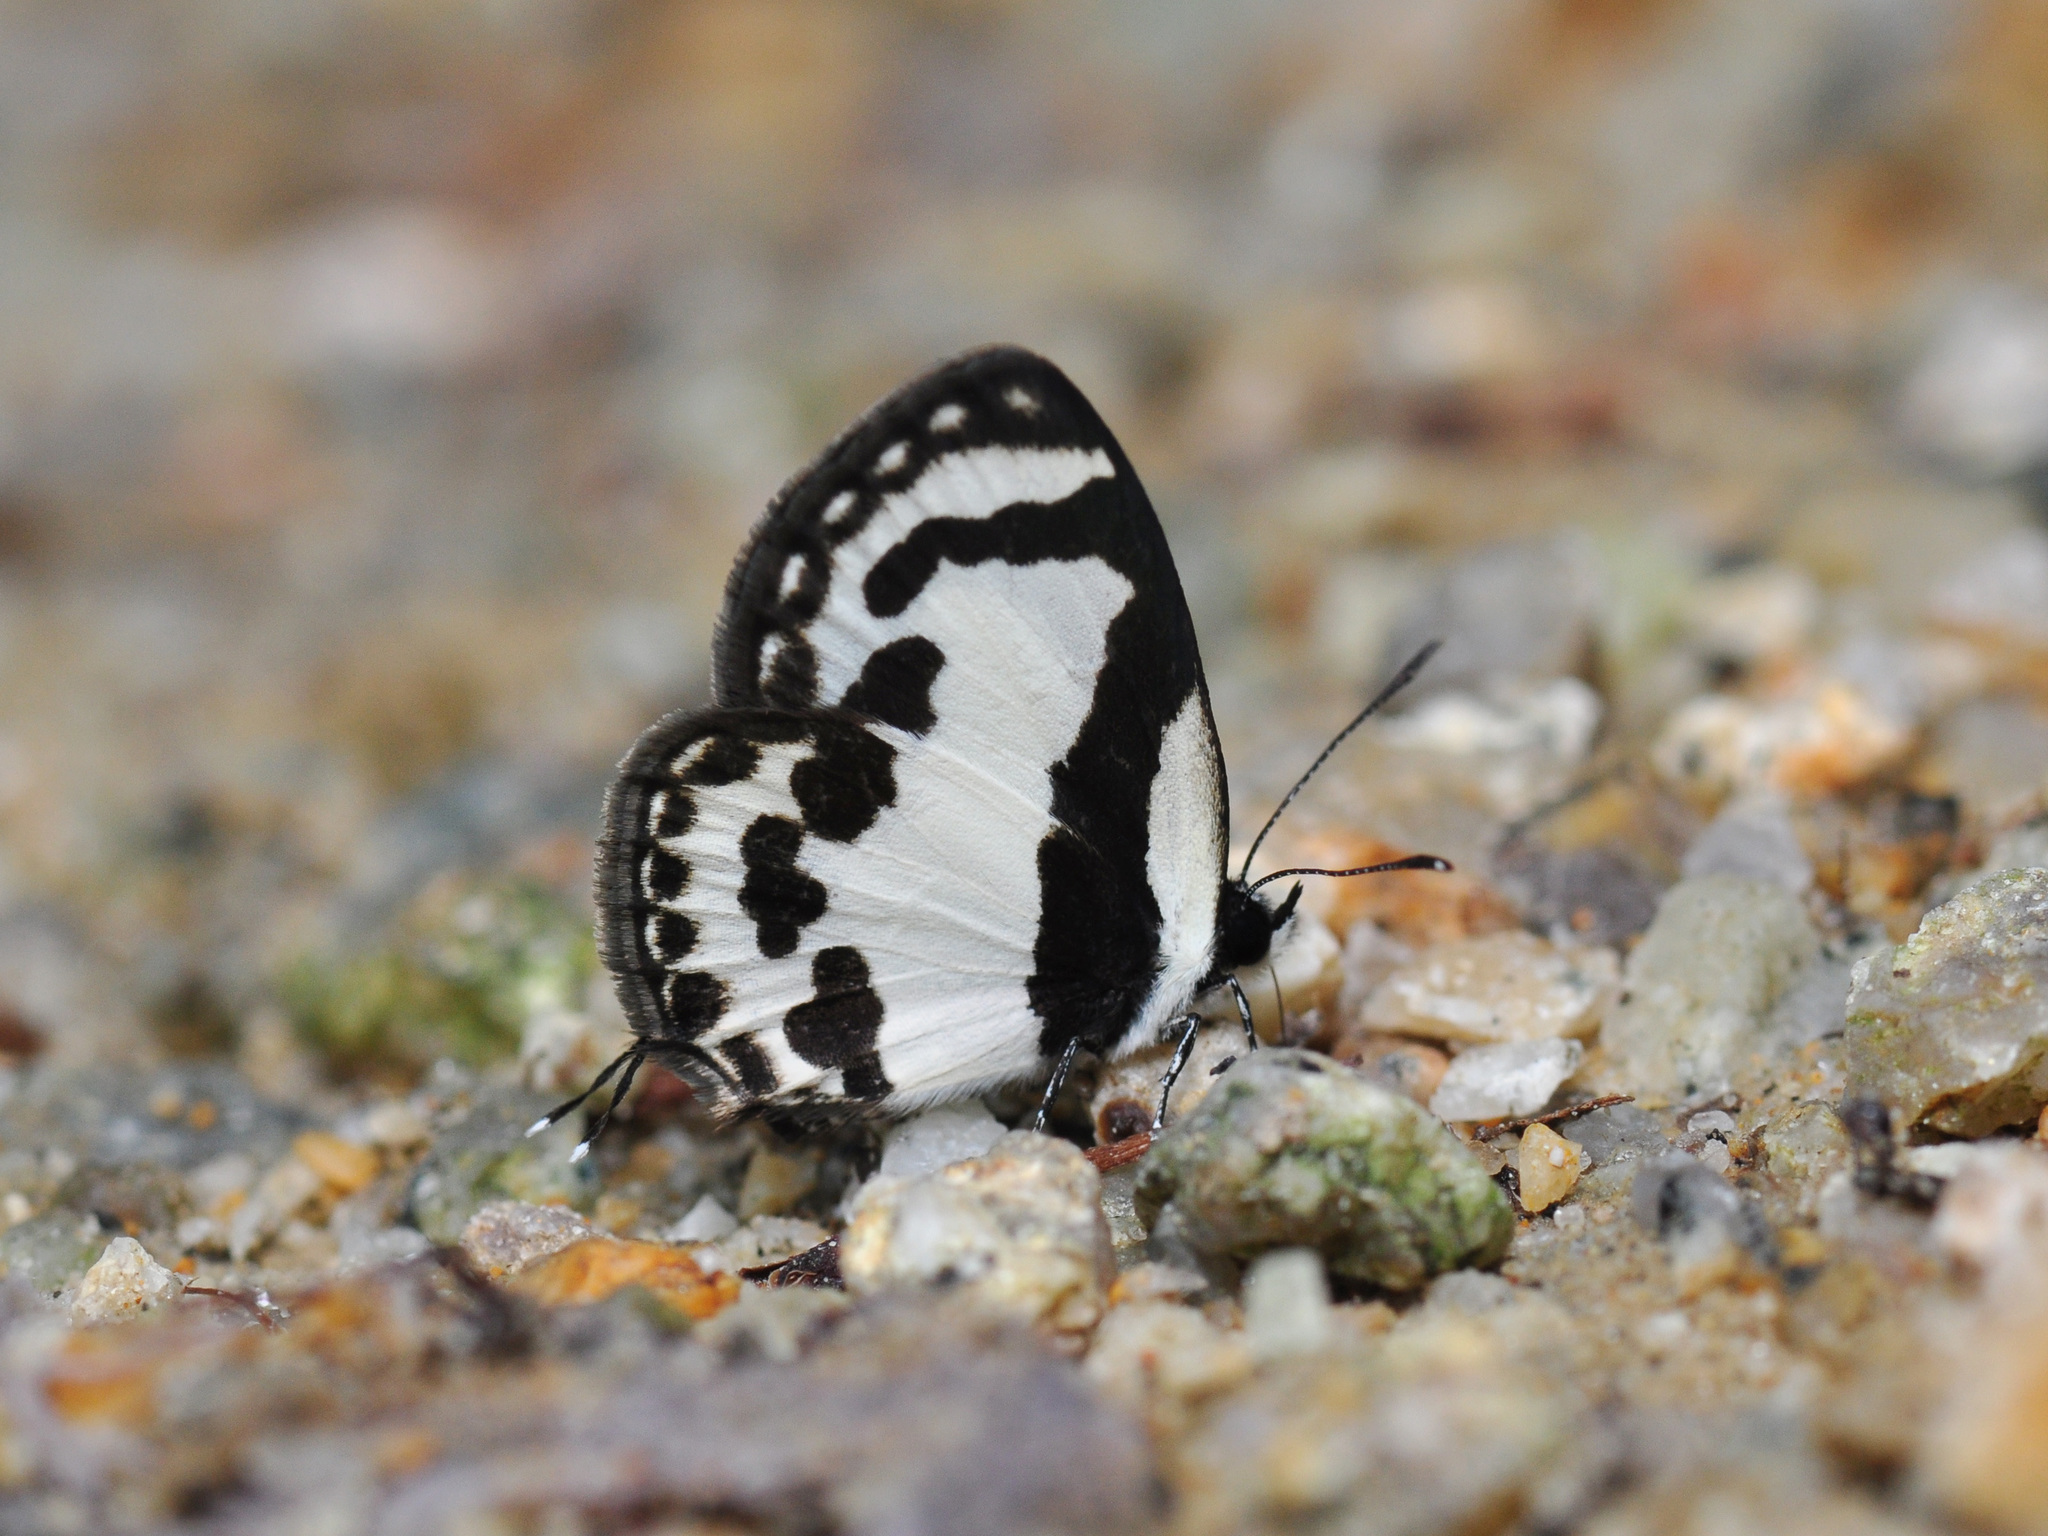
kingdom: Animalia
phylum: Arthropoda
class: Insecta
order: Lepidoptera
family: Lycaenidae
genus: Caleta
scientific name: Caleta roxus
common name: Straight pierrot
